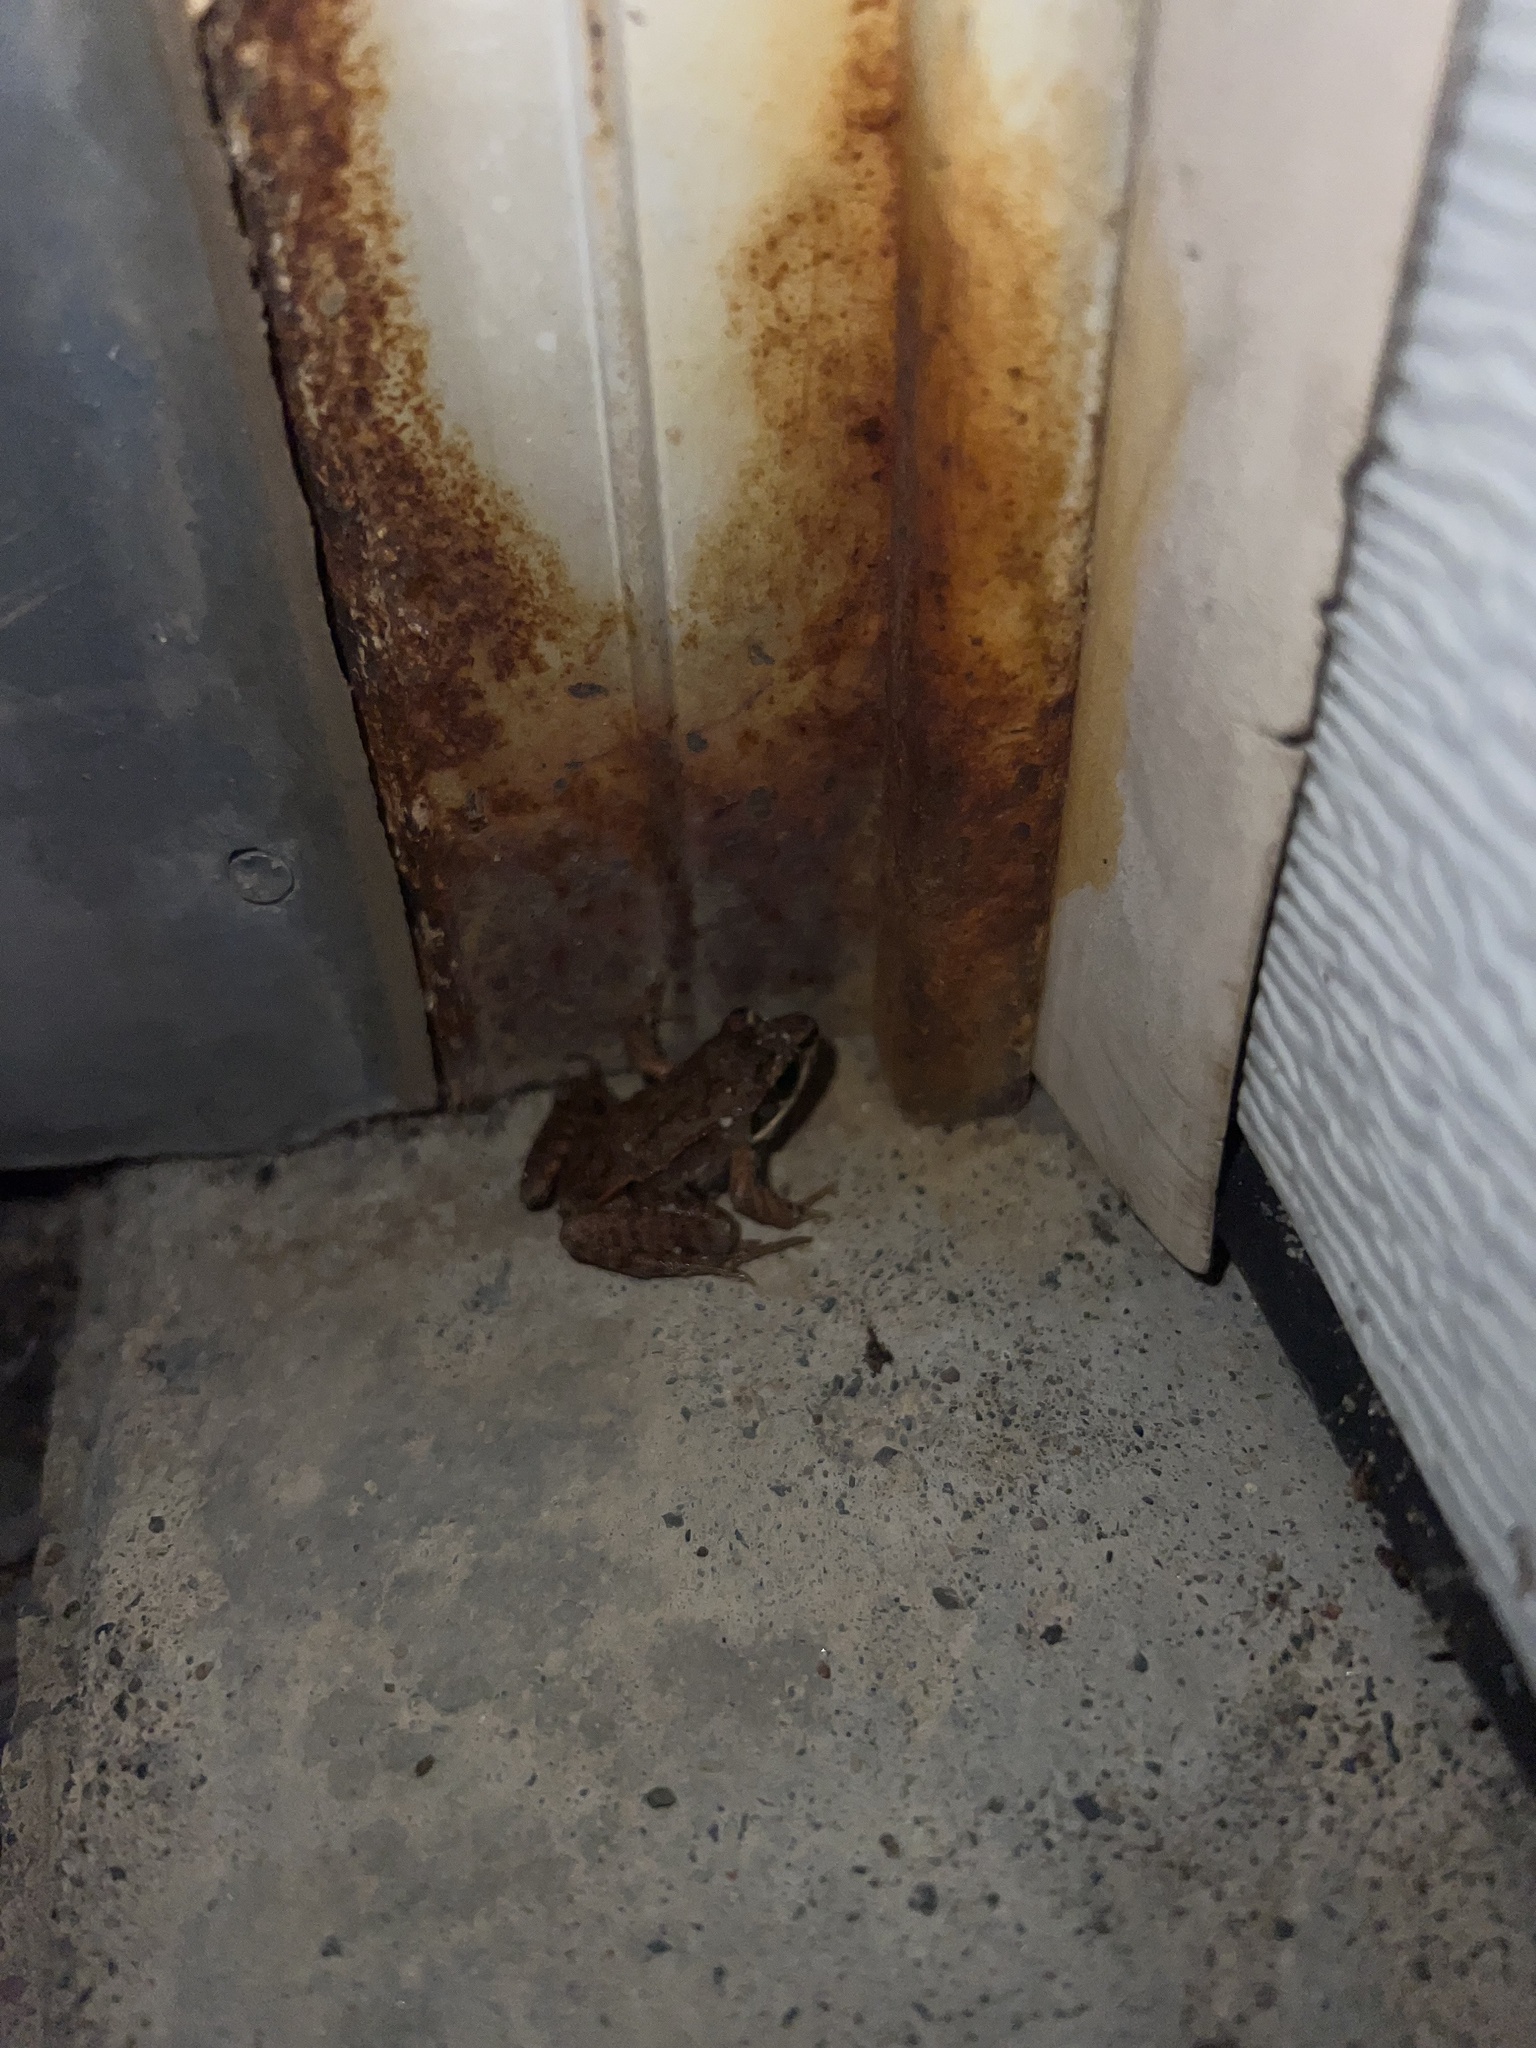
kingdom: Animalia
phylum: Chordata
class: Amphibia
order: Anura
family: Ranidae
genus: Lithobates
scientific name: Lithobates sylvaticus
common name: Wood frog
